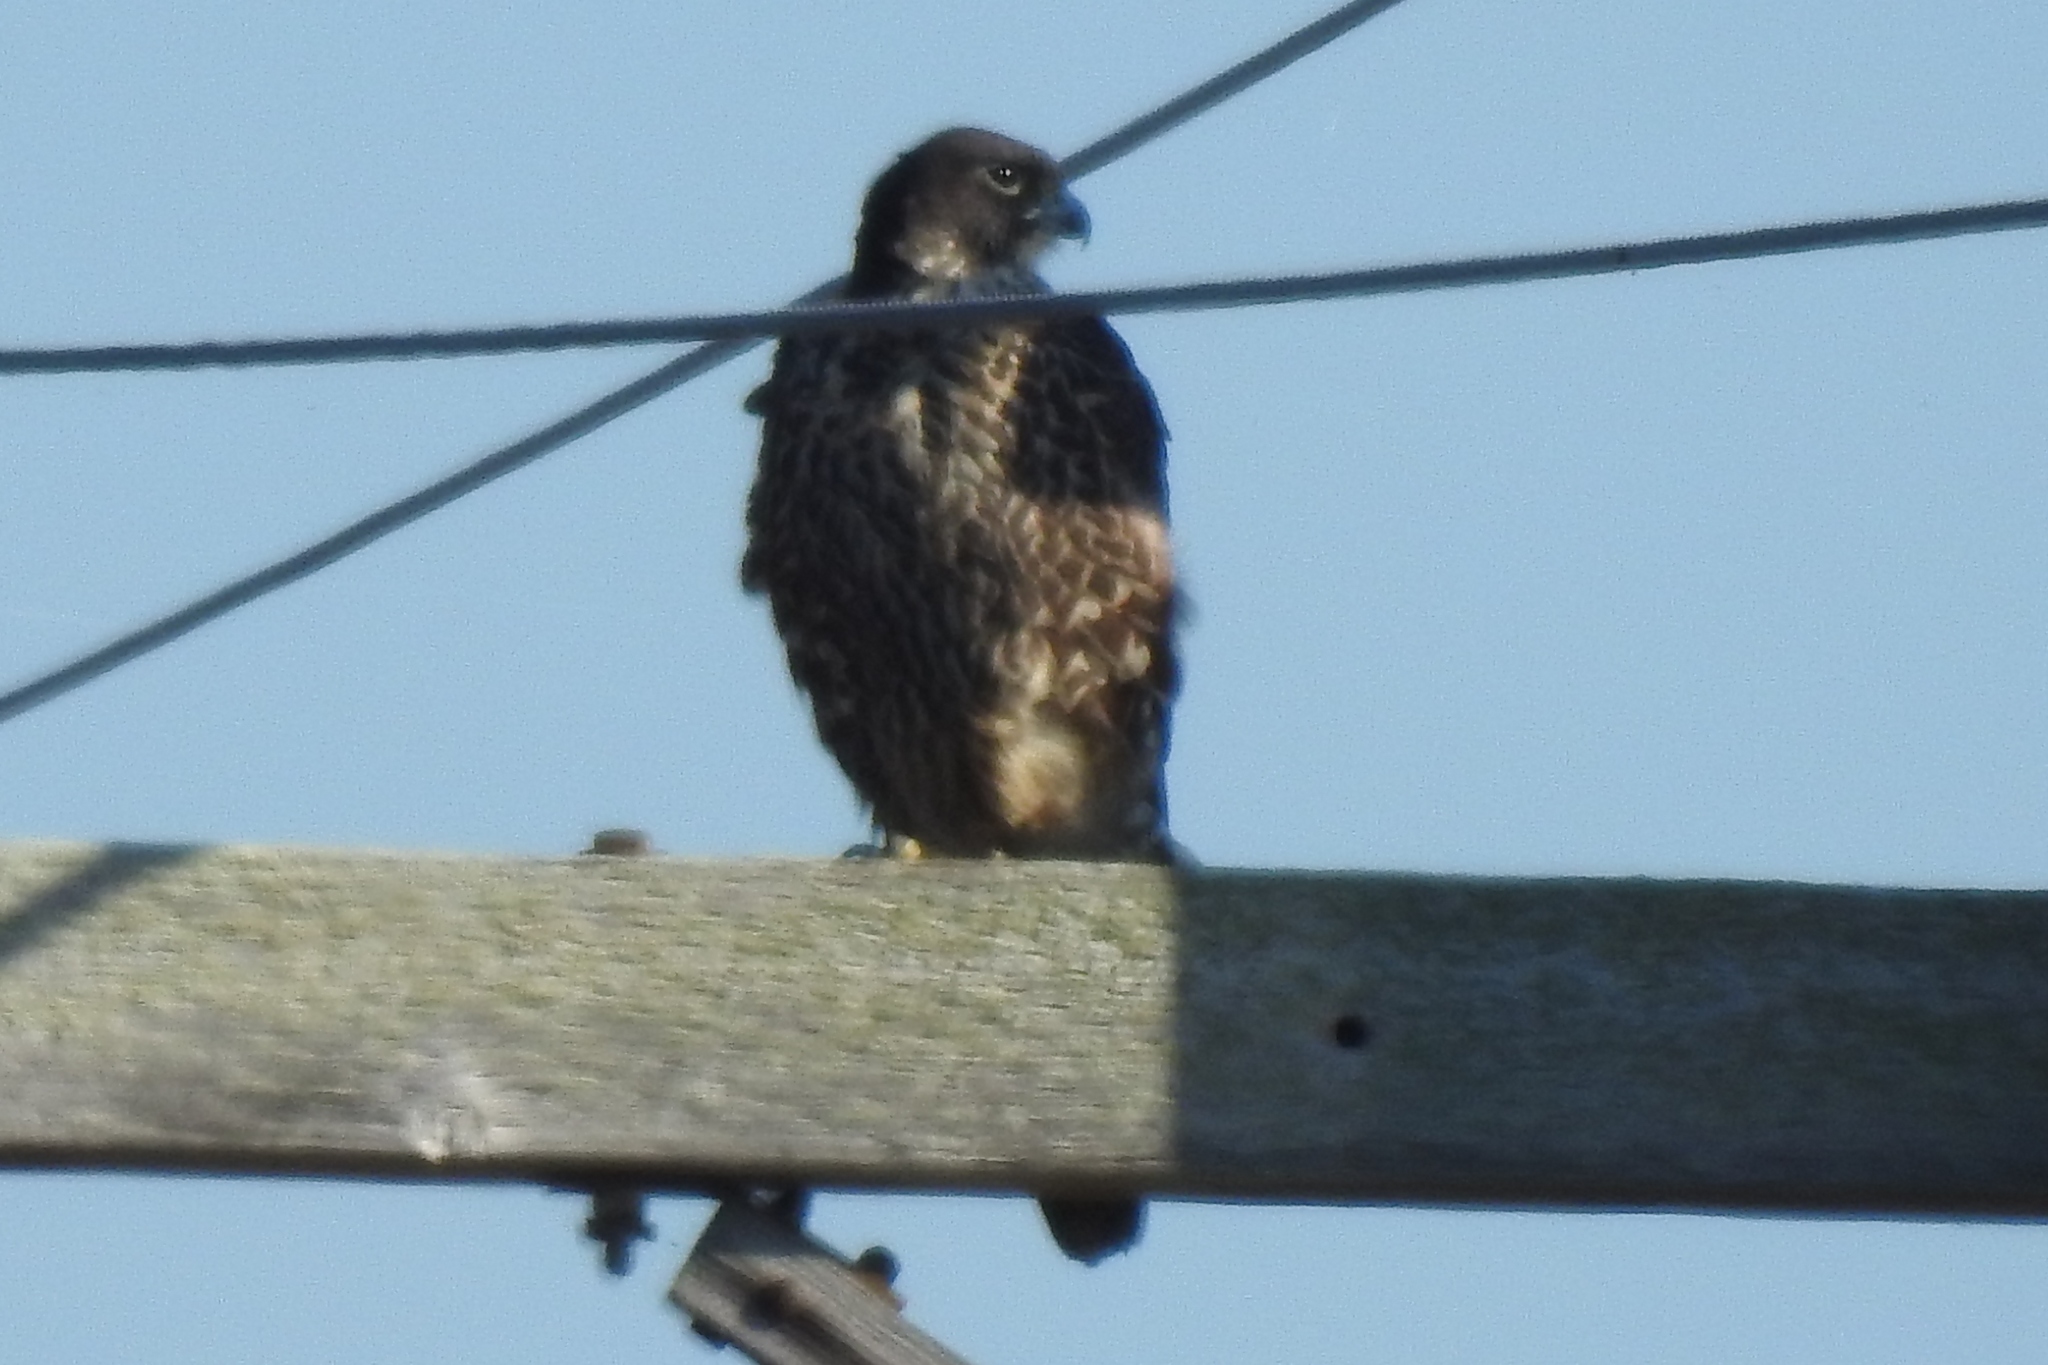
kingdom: Animalia
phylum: Chordata
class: Aves
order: Falconiformes
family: Falconidae
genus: Falco
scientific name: Falco peregrinus
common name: Peregrine falcon
